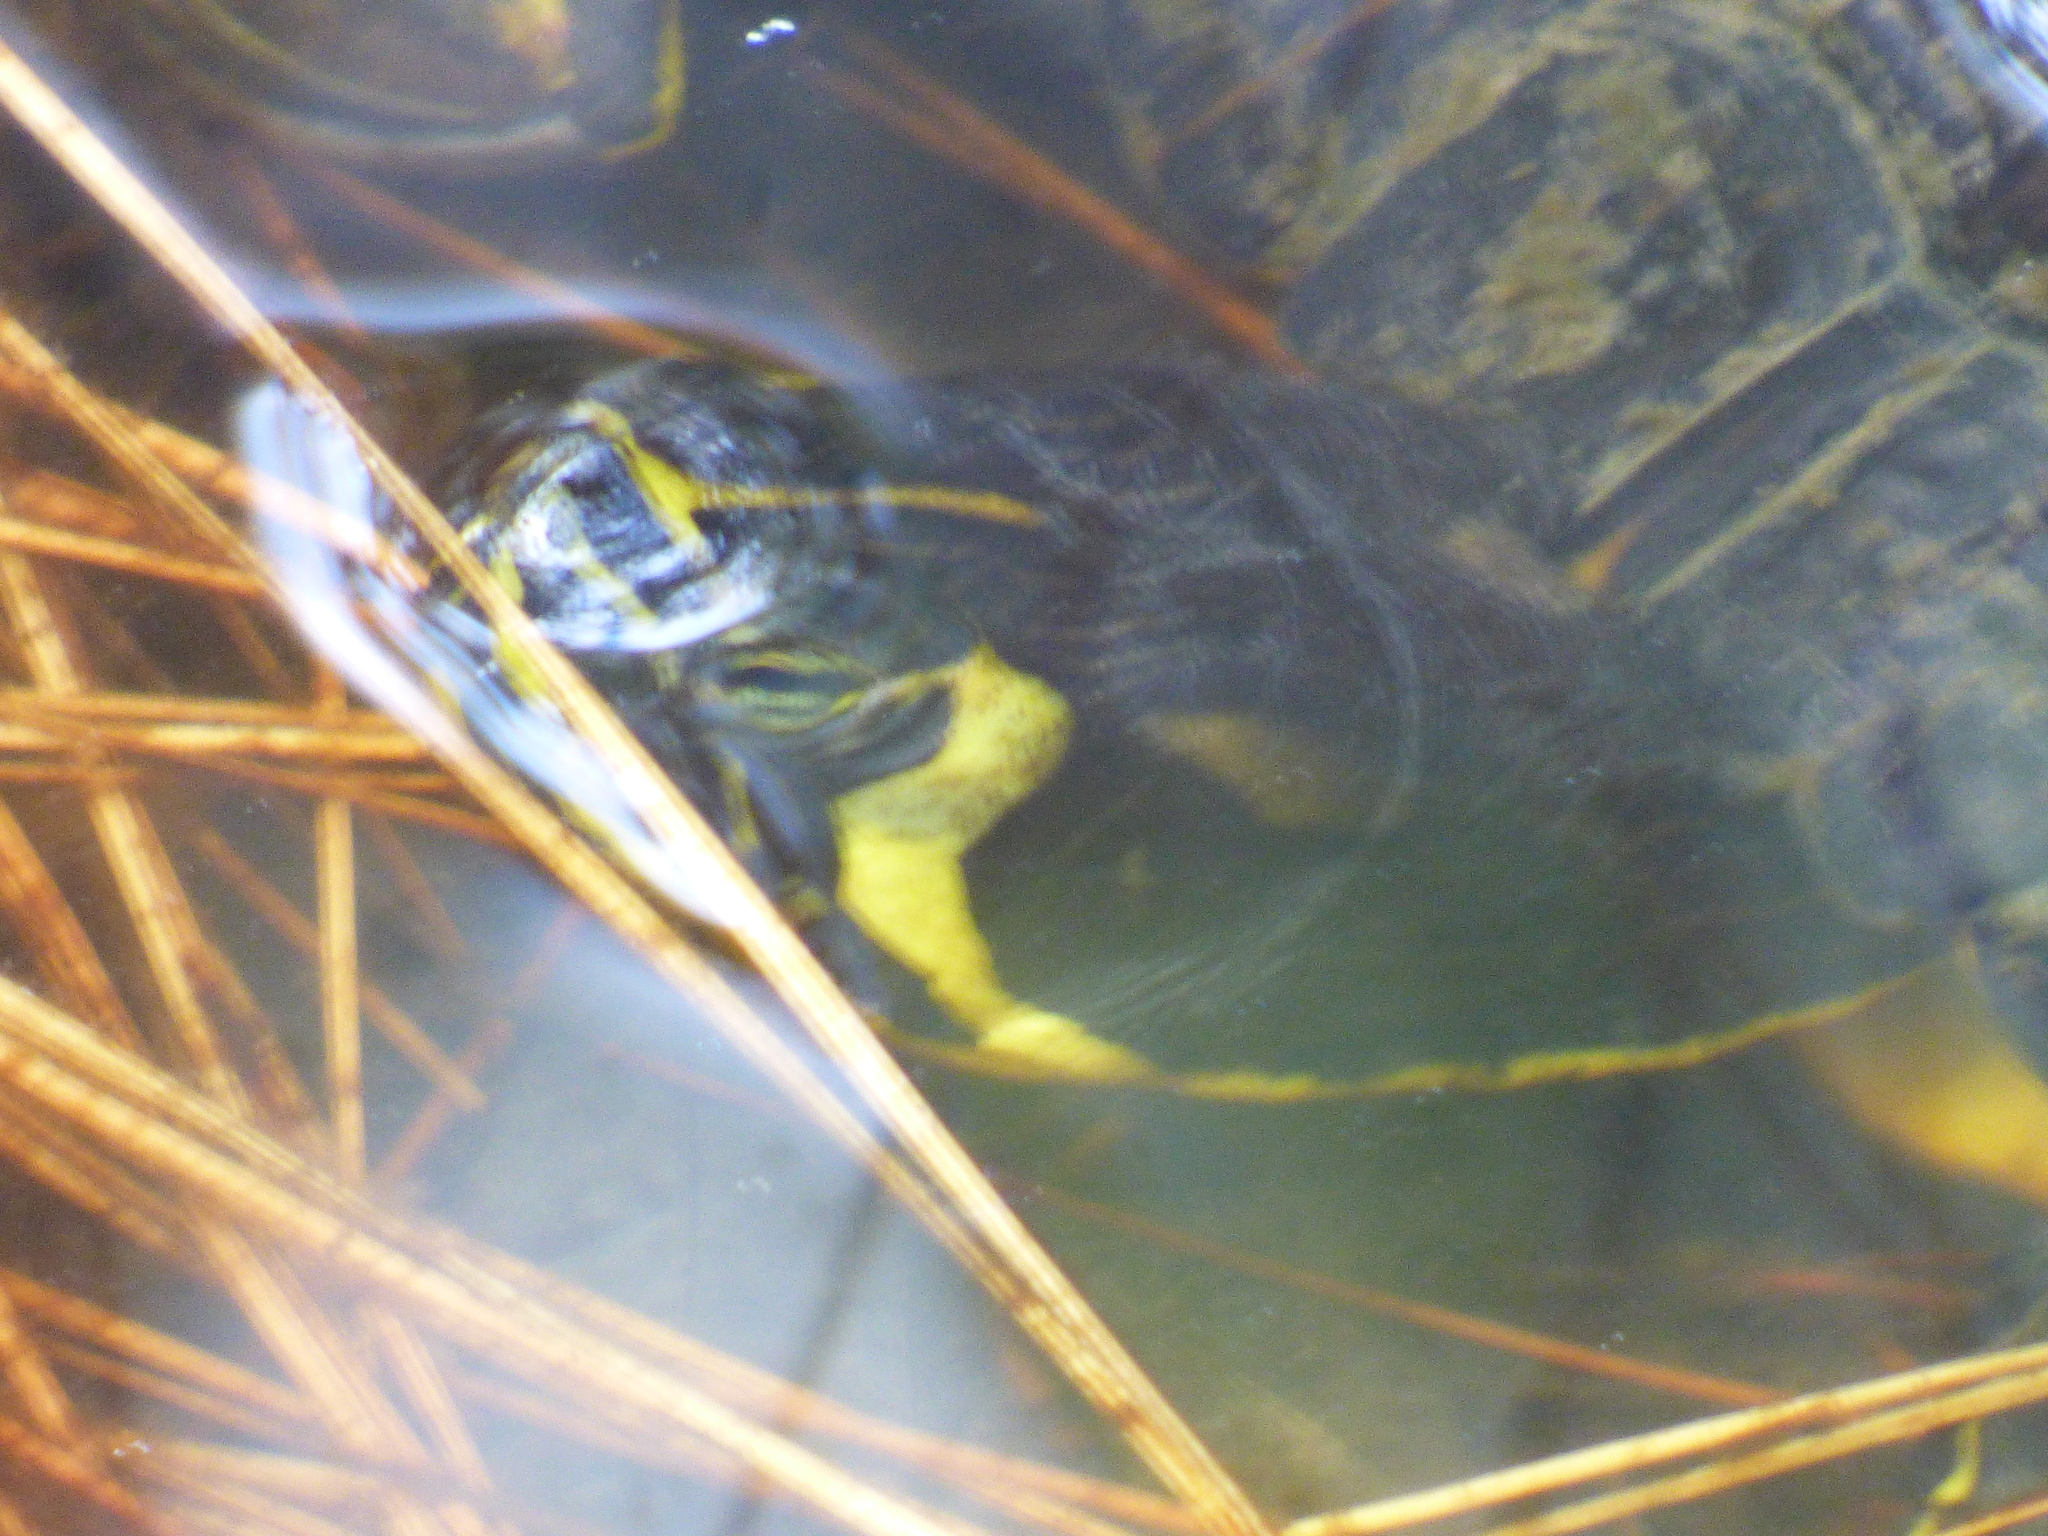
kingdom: Animalia
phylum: Chordata
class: Testudines
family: Emydidae
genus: Trachemys
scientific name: Trachemys scripta
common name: Slider
